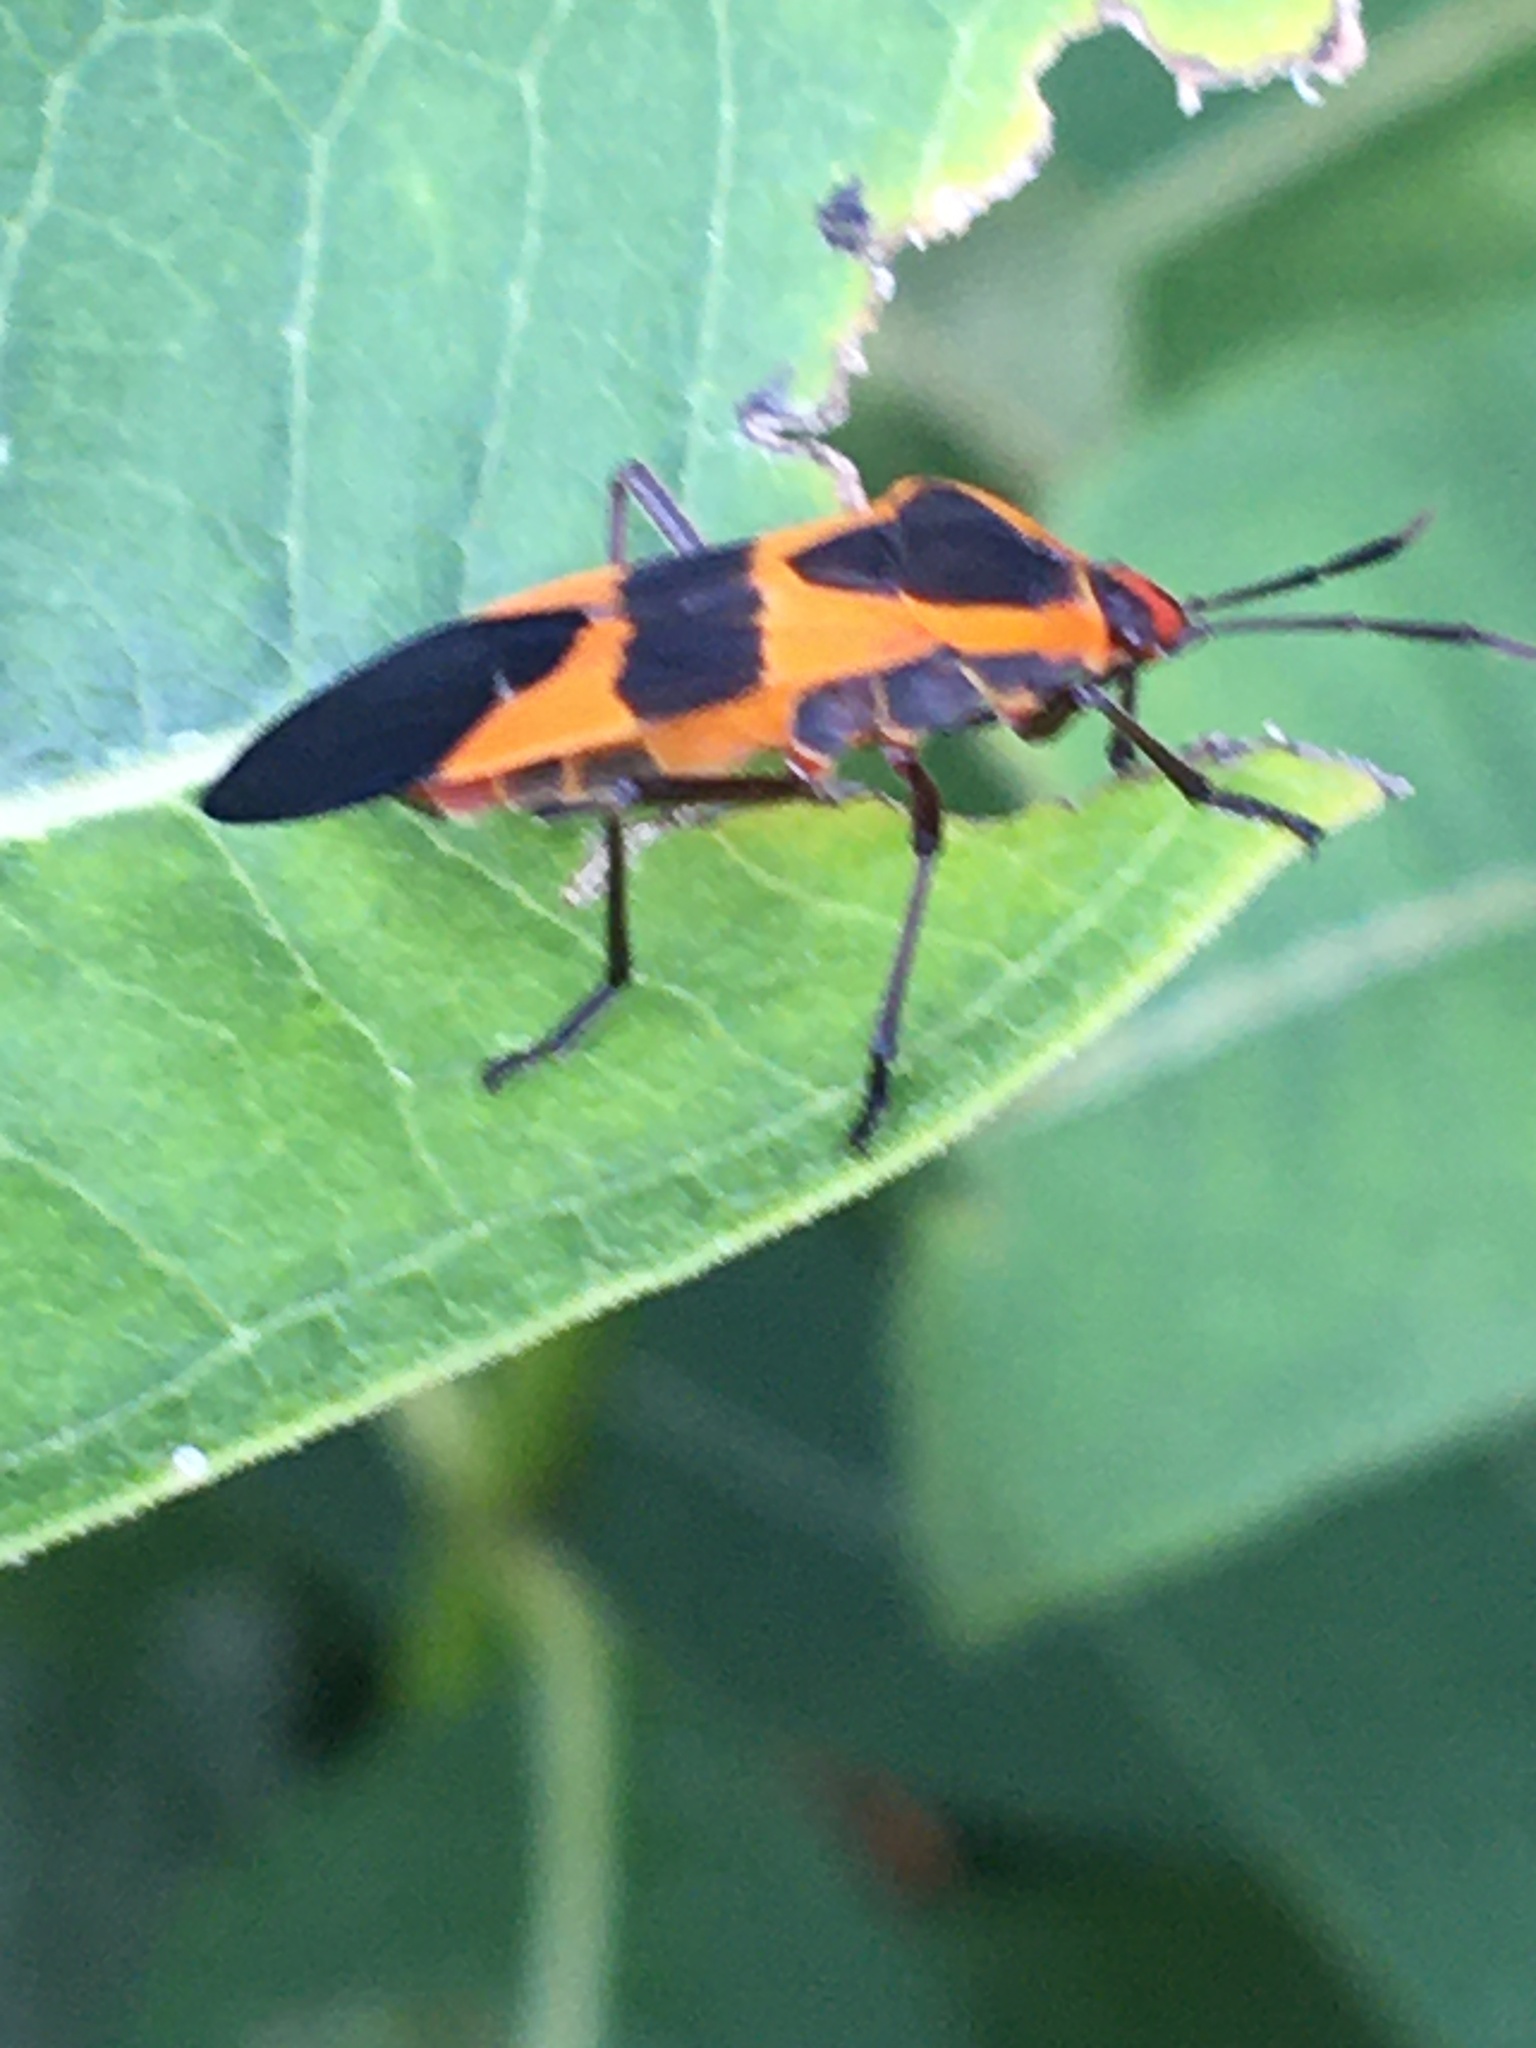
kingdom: Animalia
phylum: Arthropoda
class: Insecta
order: Hemiptera
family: Lygaeidae
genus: Oncopeltus
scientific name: Oncopeltus fasciatus
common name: Large milkweed bug
